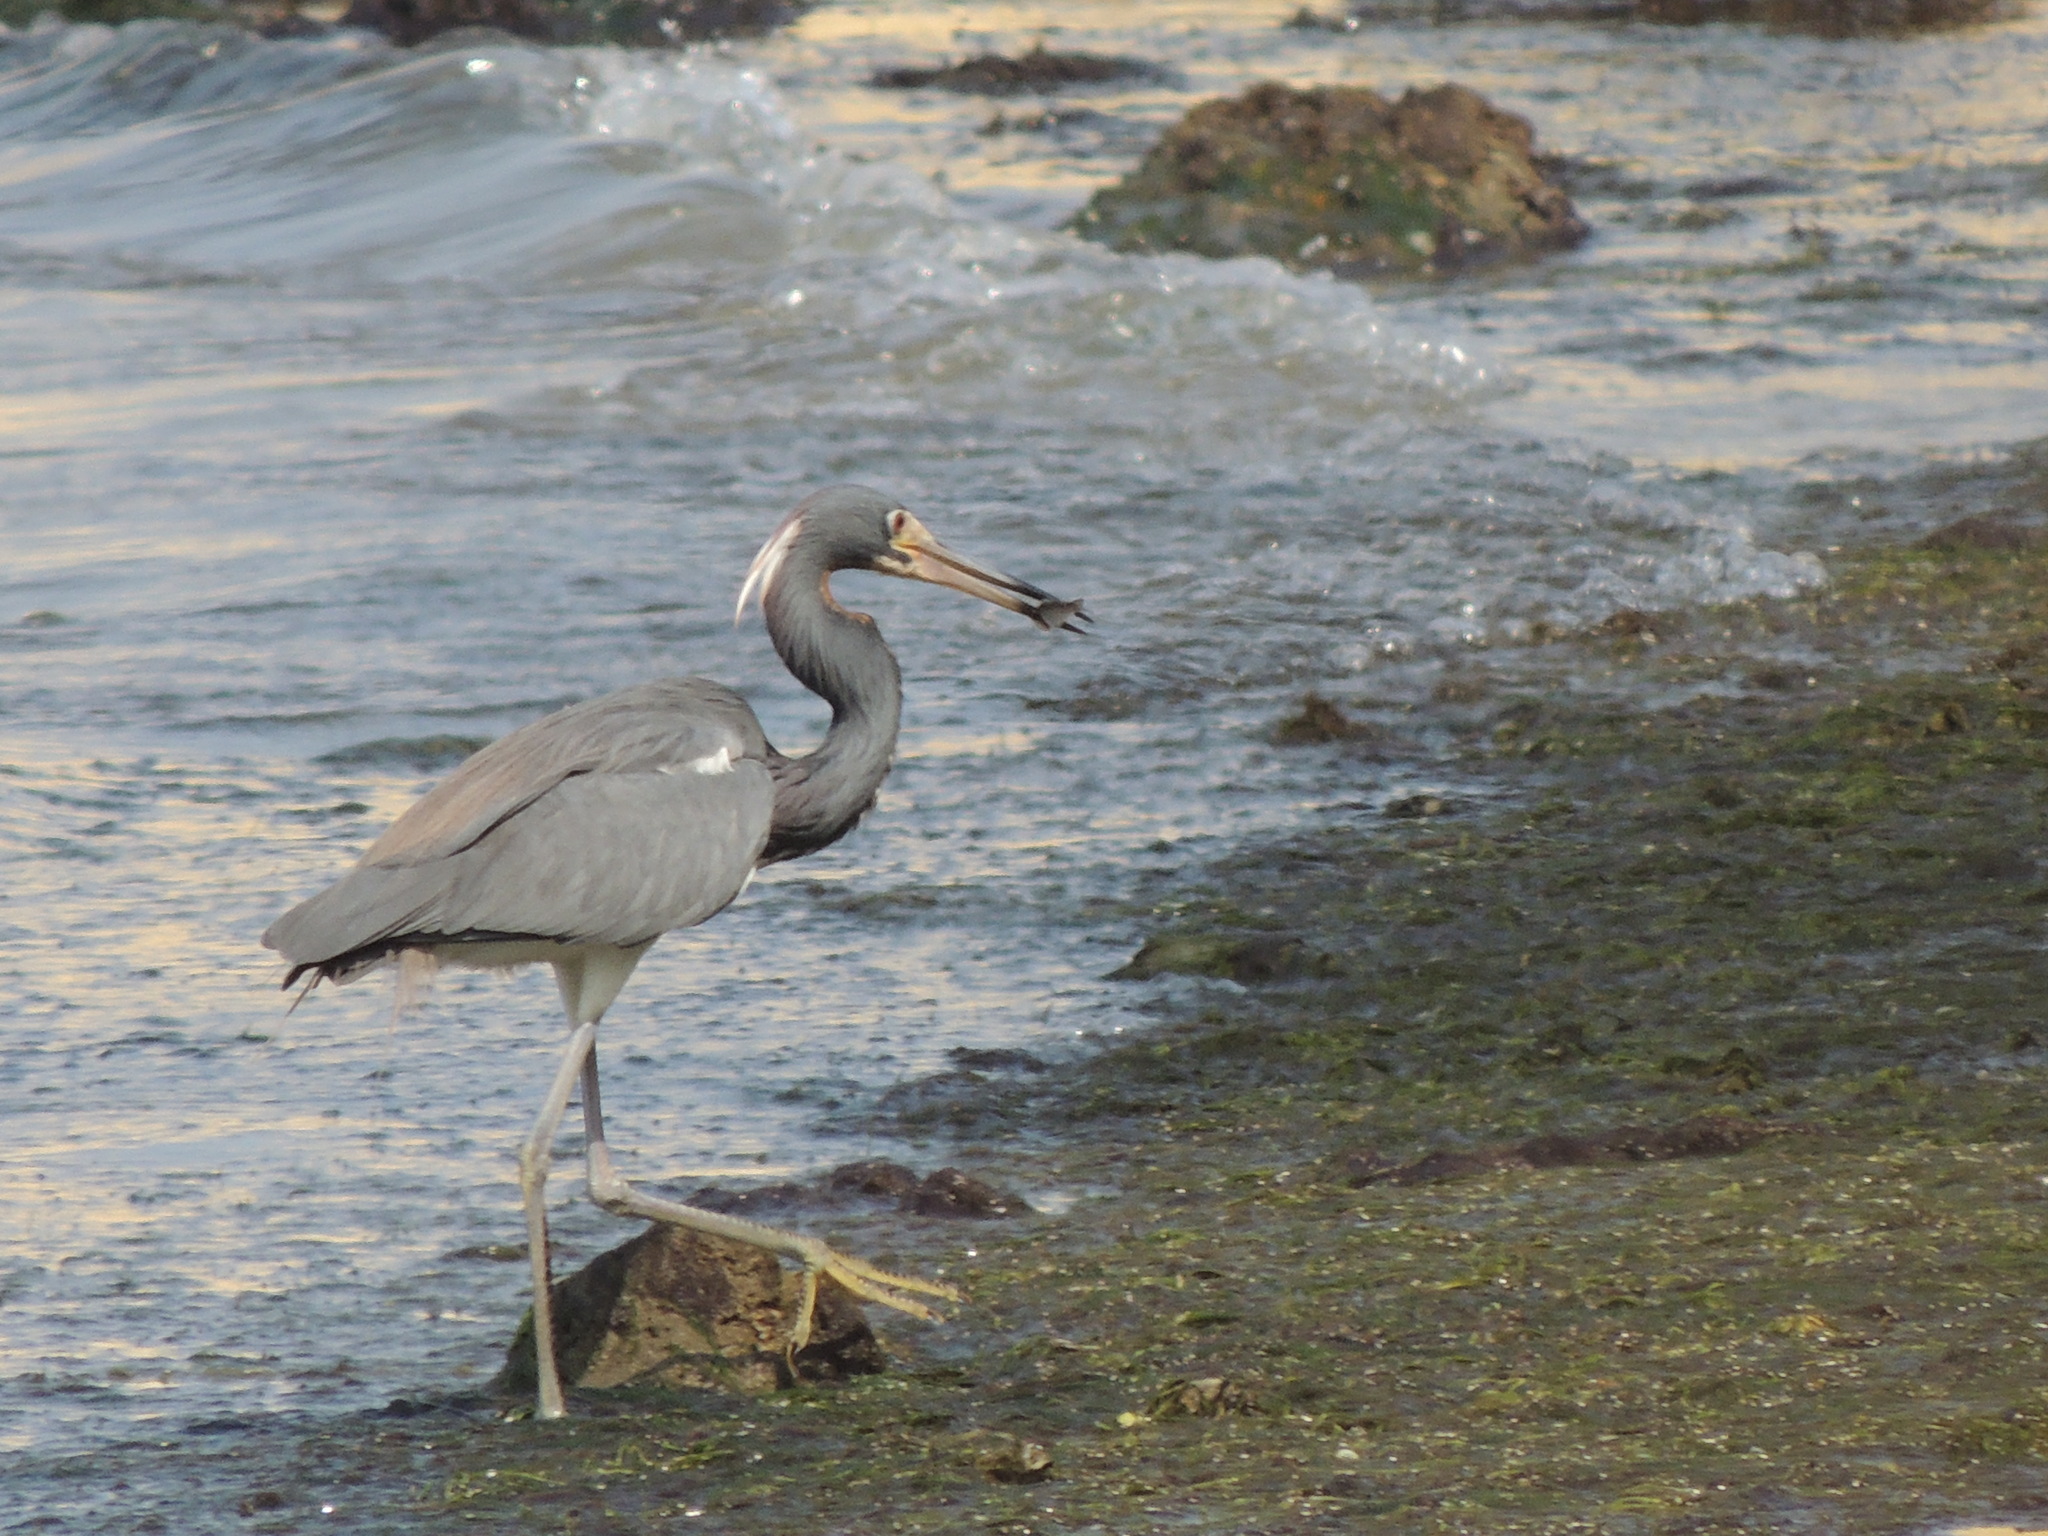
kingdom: Animalia
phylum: Chordata
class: Aves
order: Pelecaniformes
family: Ardeidae
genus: Egretta
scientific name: Egretta tricolor
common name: Tricolored heron
